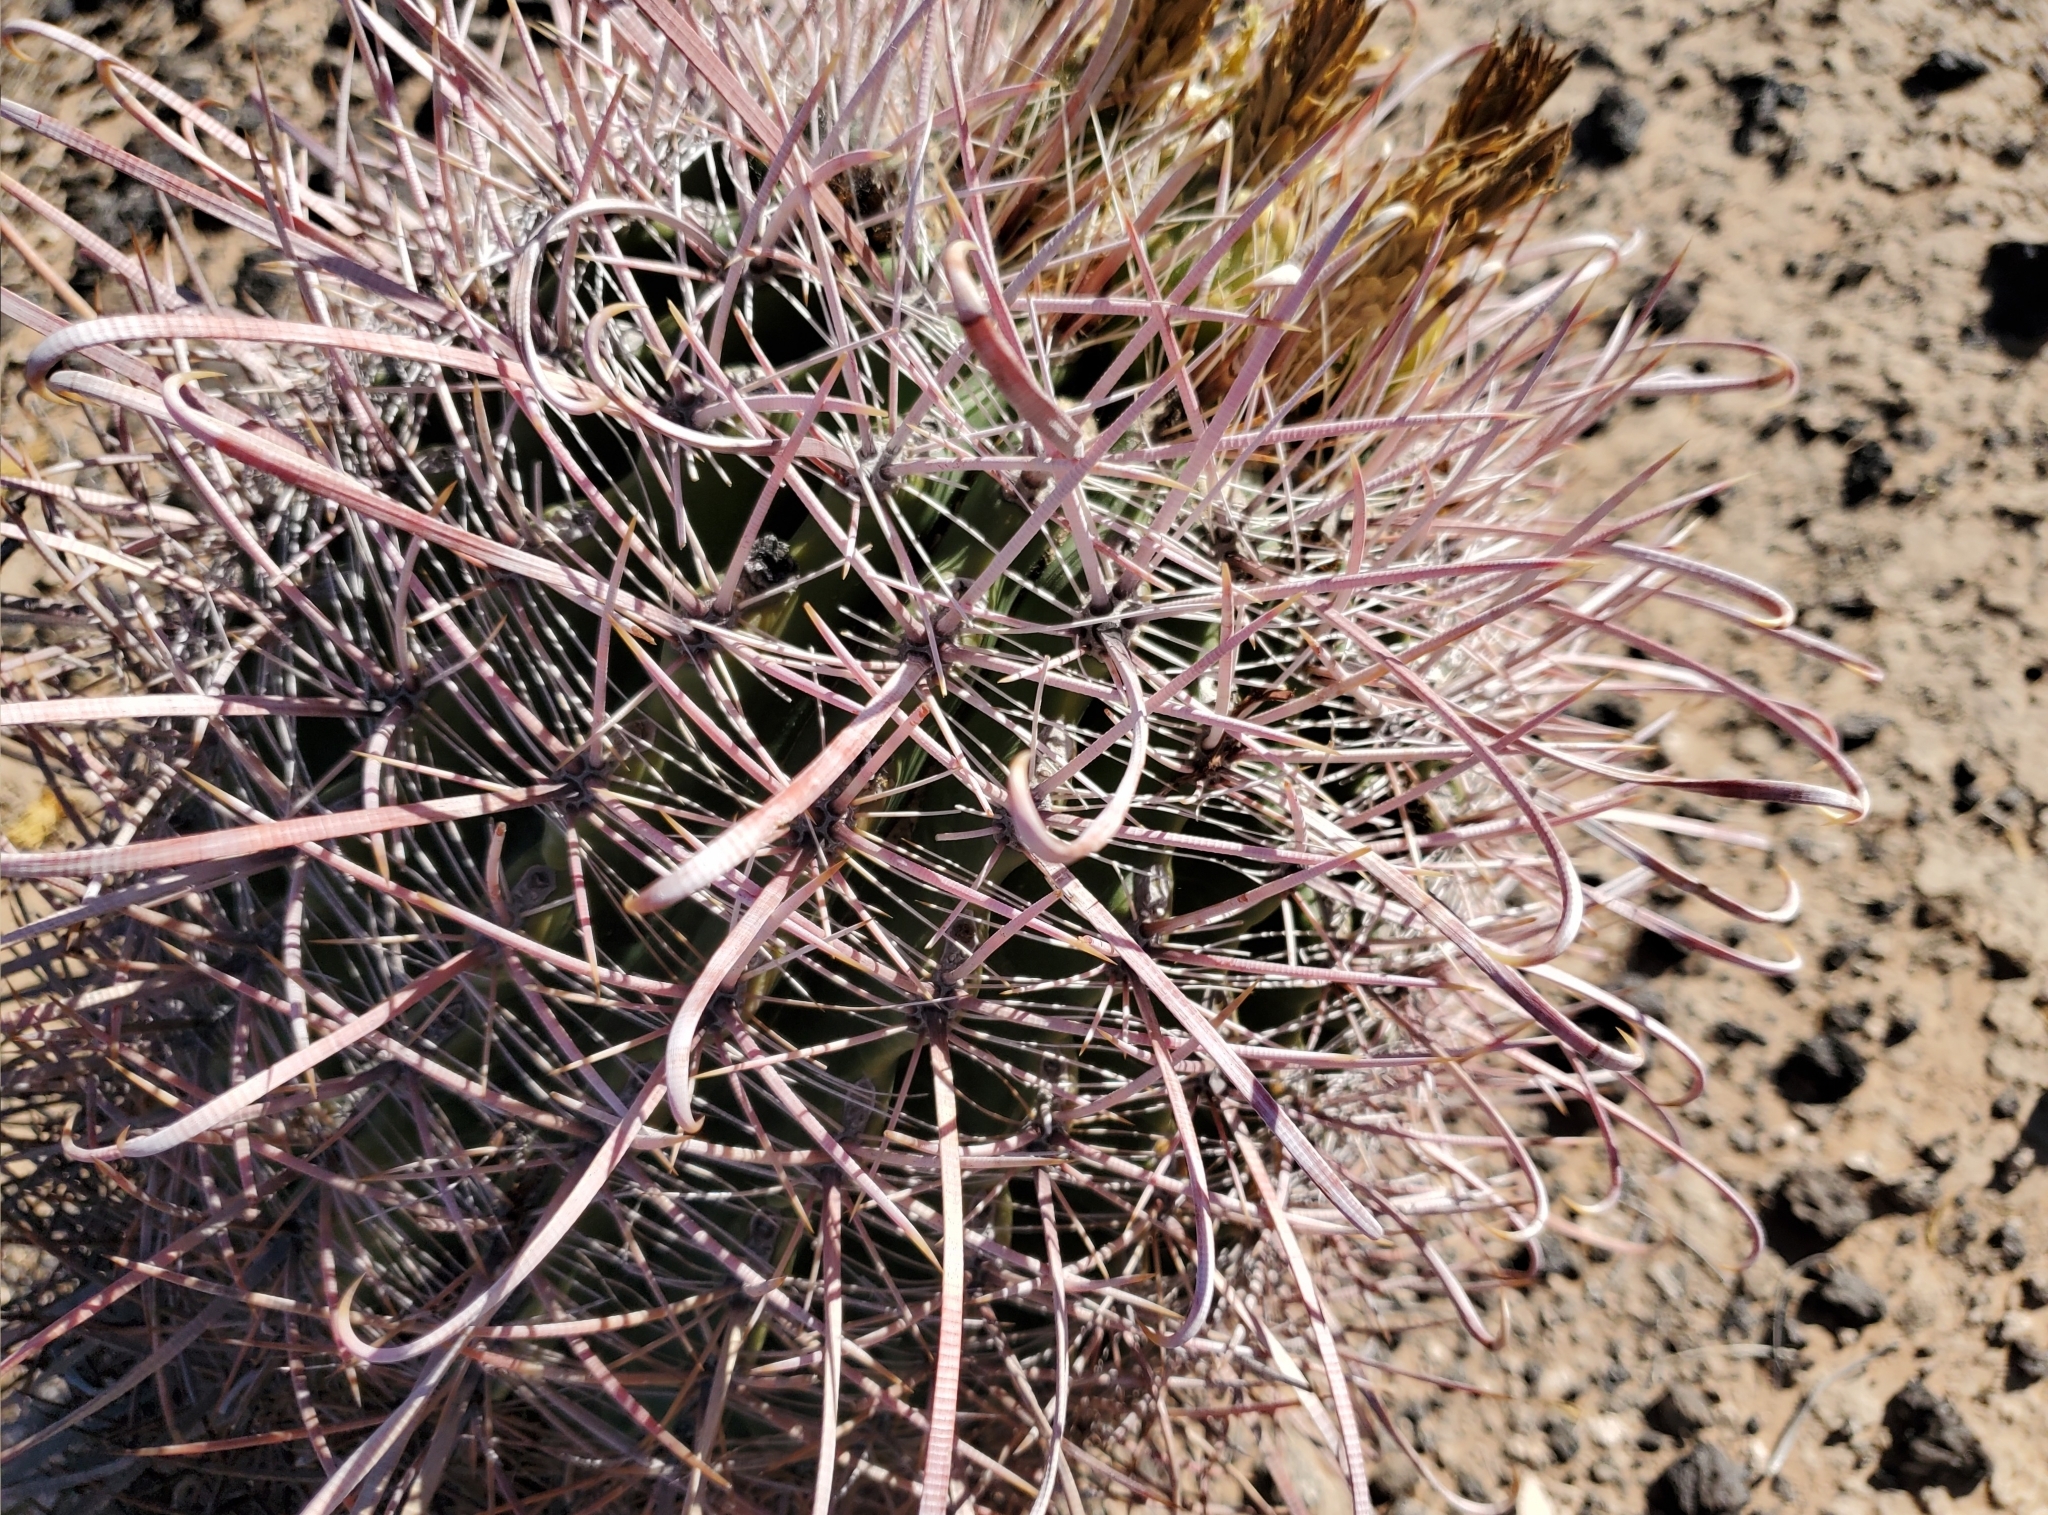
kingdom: Plantae
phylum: Tracheophyta
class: Magnoliopsida
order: Caryophyllales
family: Cactaceae
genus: Ferocactus
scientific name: Ferocactus cylindraceus
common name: California barrel cactus
